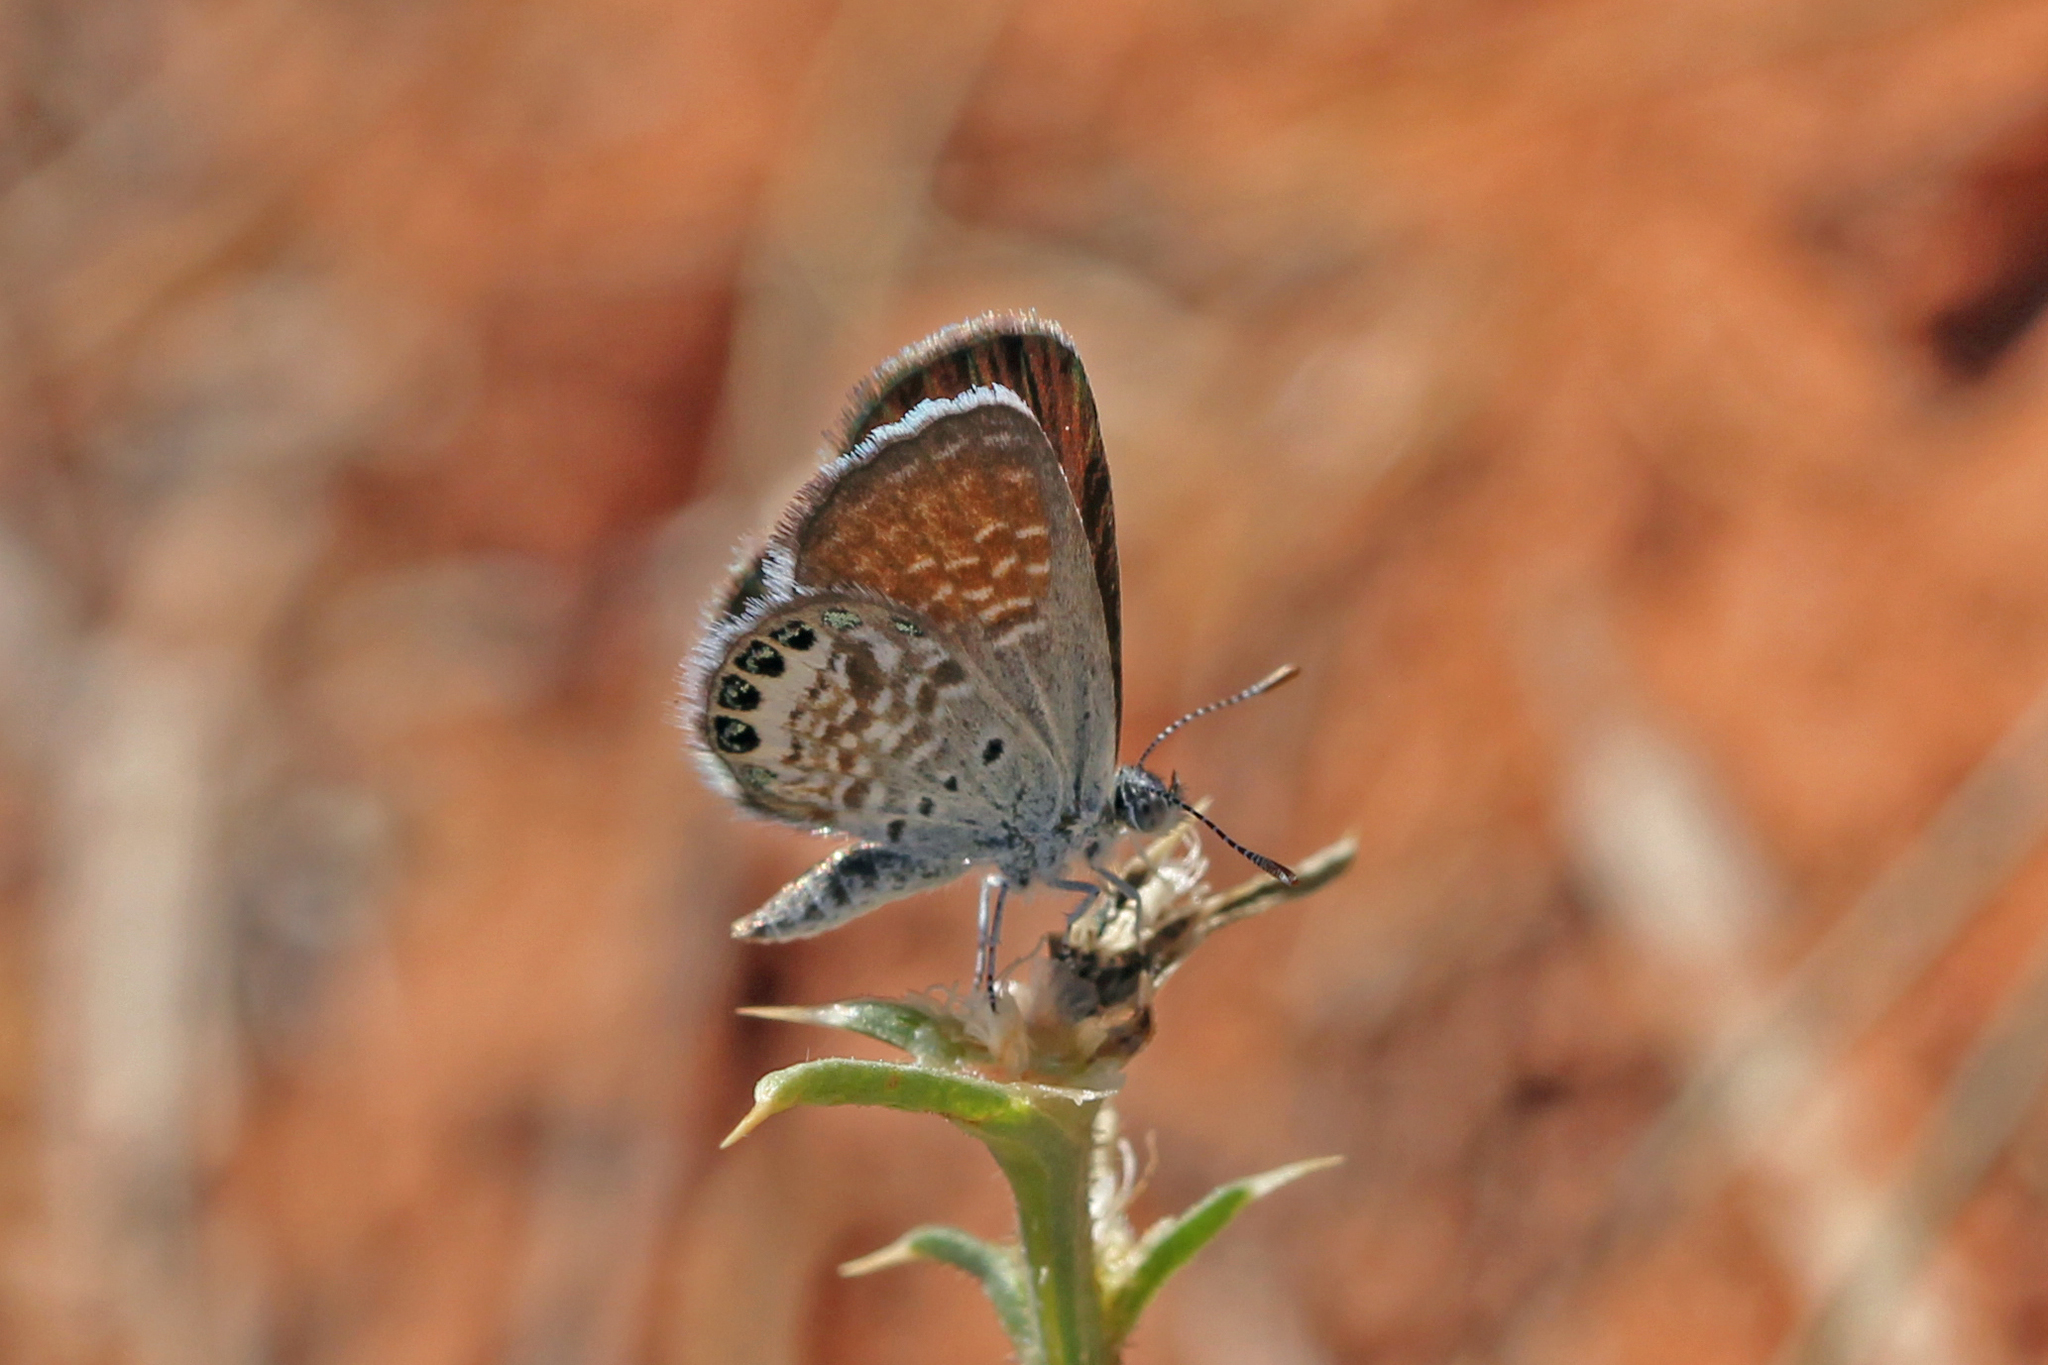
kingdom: Animalia
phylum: Arthropoda
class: Insecta
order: Lepidoptera
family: Lycaenidae
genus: Brephidium
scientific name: Brephidium exilis
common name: Pygmy blue
